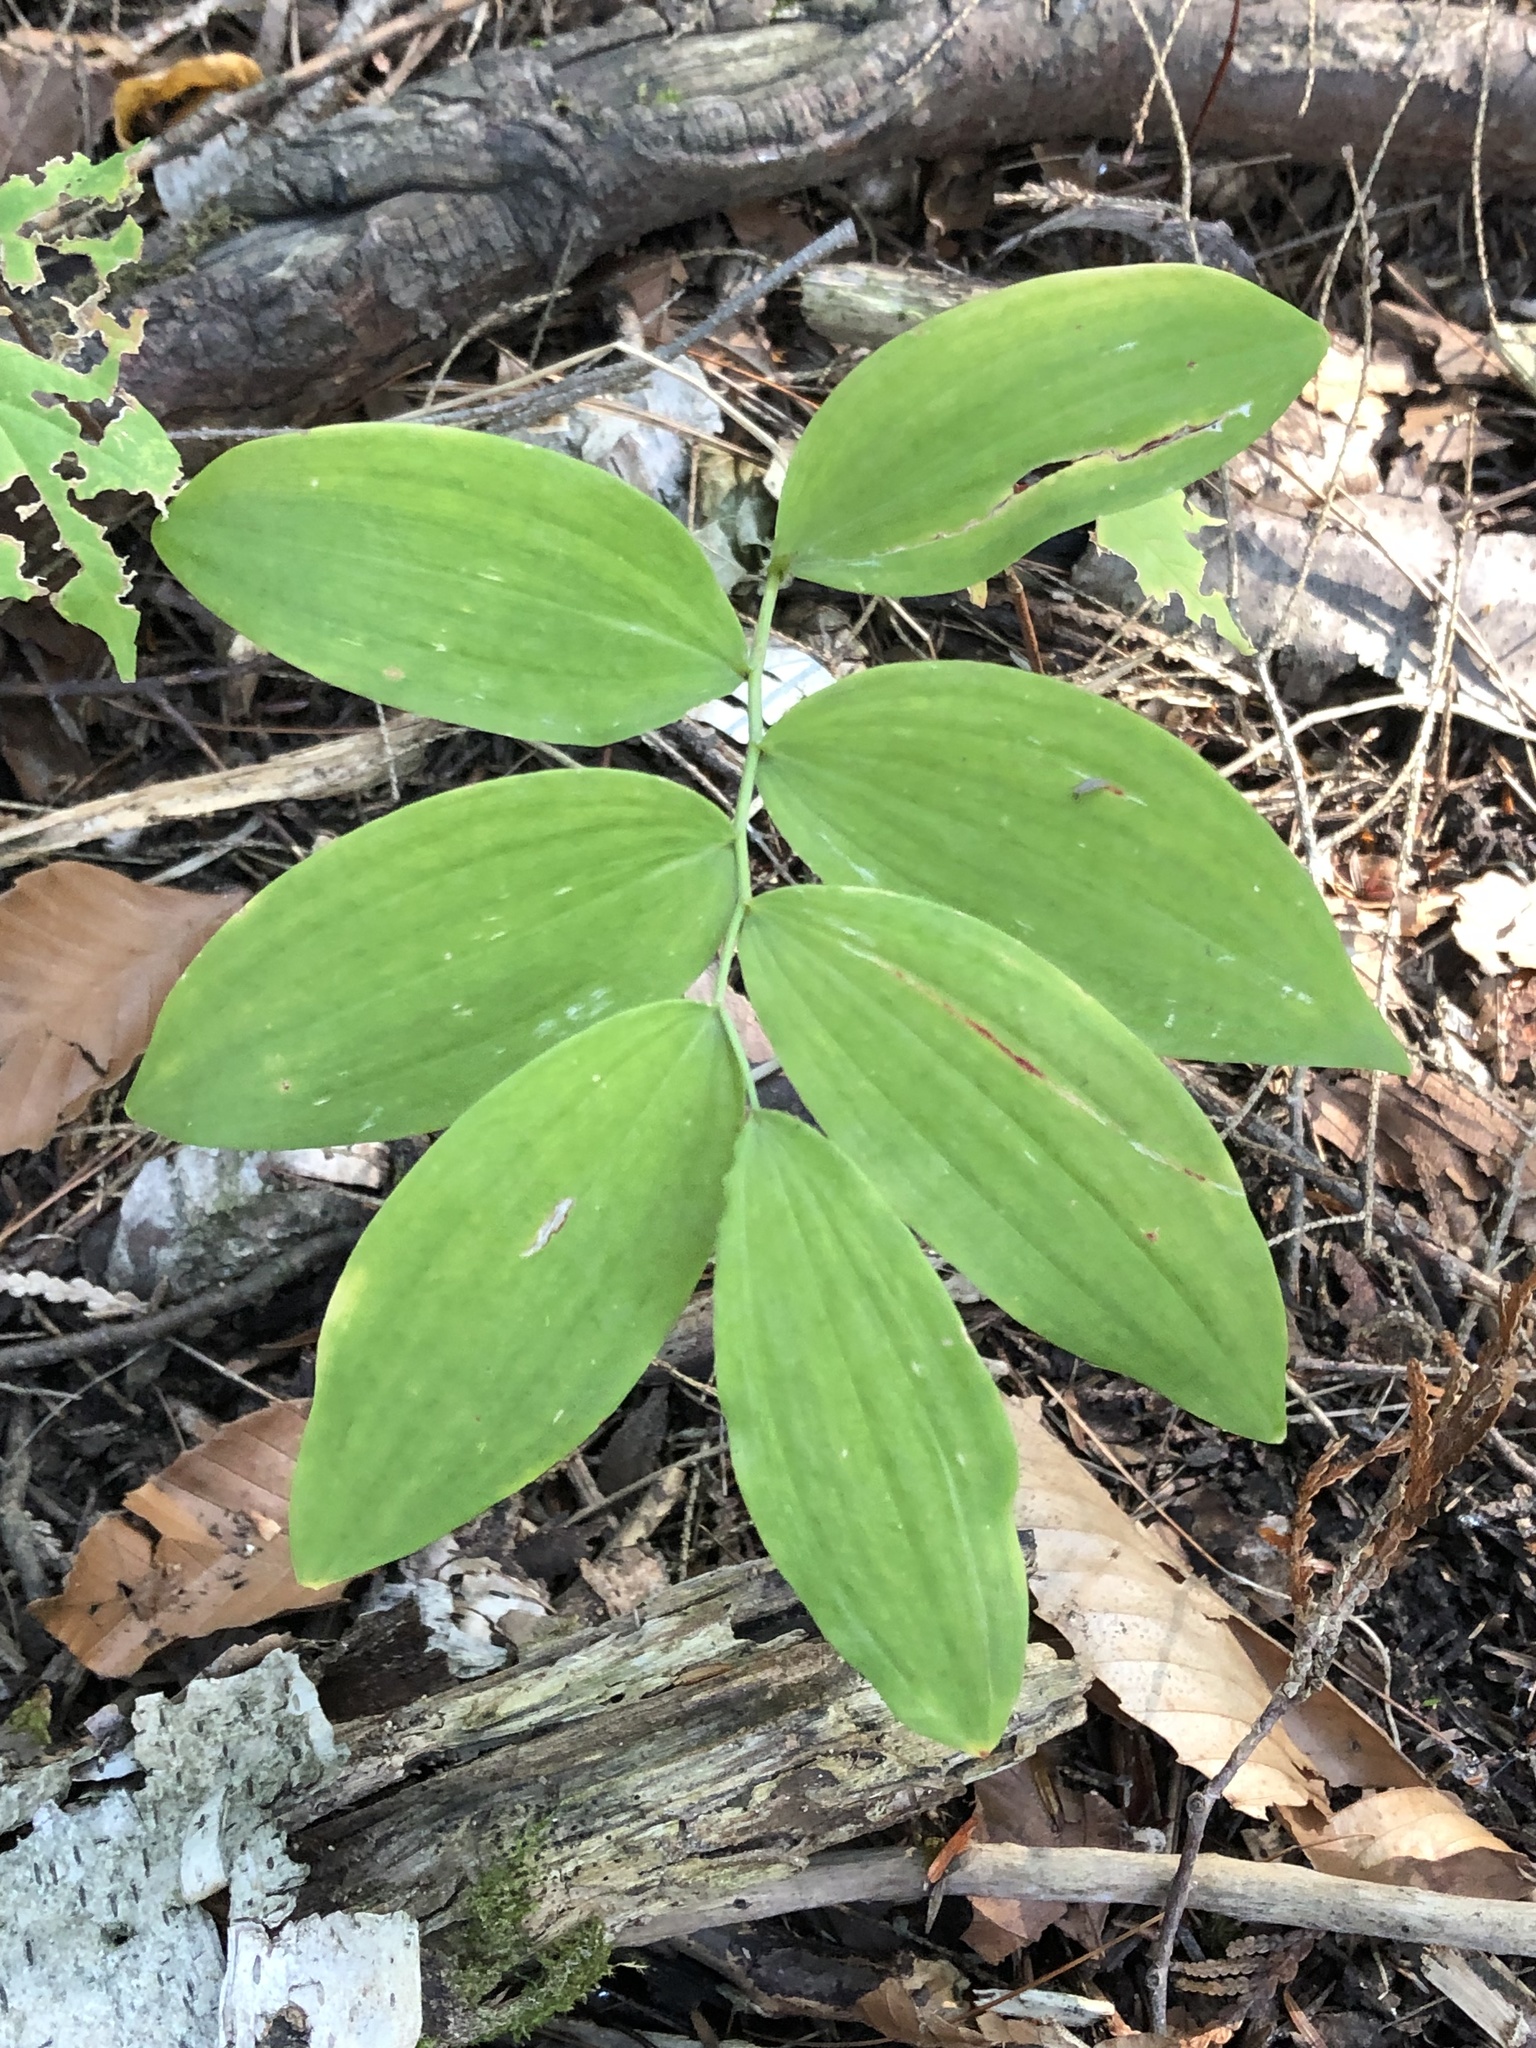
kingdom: Plantae
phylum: Tracheophyta
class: Liliopsida
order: Asparagales
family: Asparagaceae
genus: Polygonatum
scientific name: Polygonatum pubescens
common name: Downy solomon's seal
